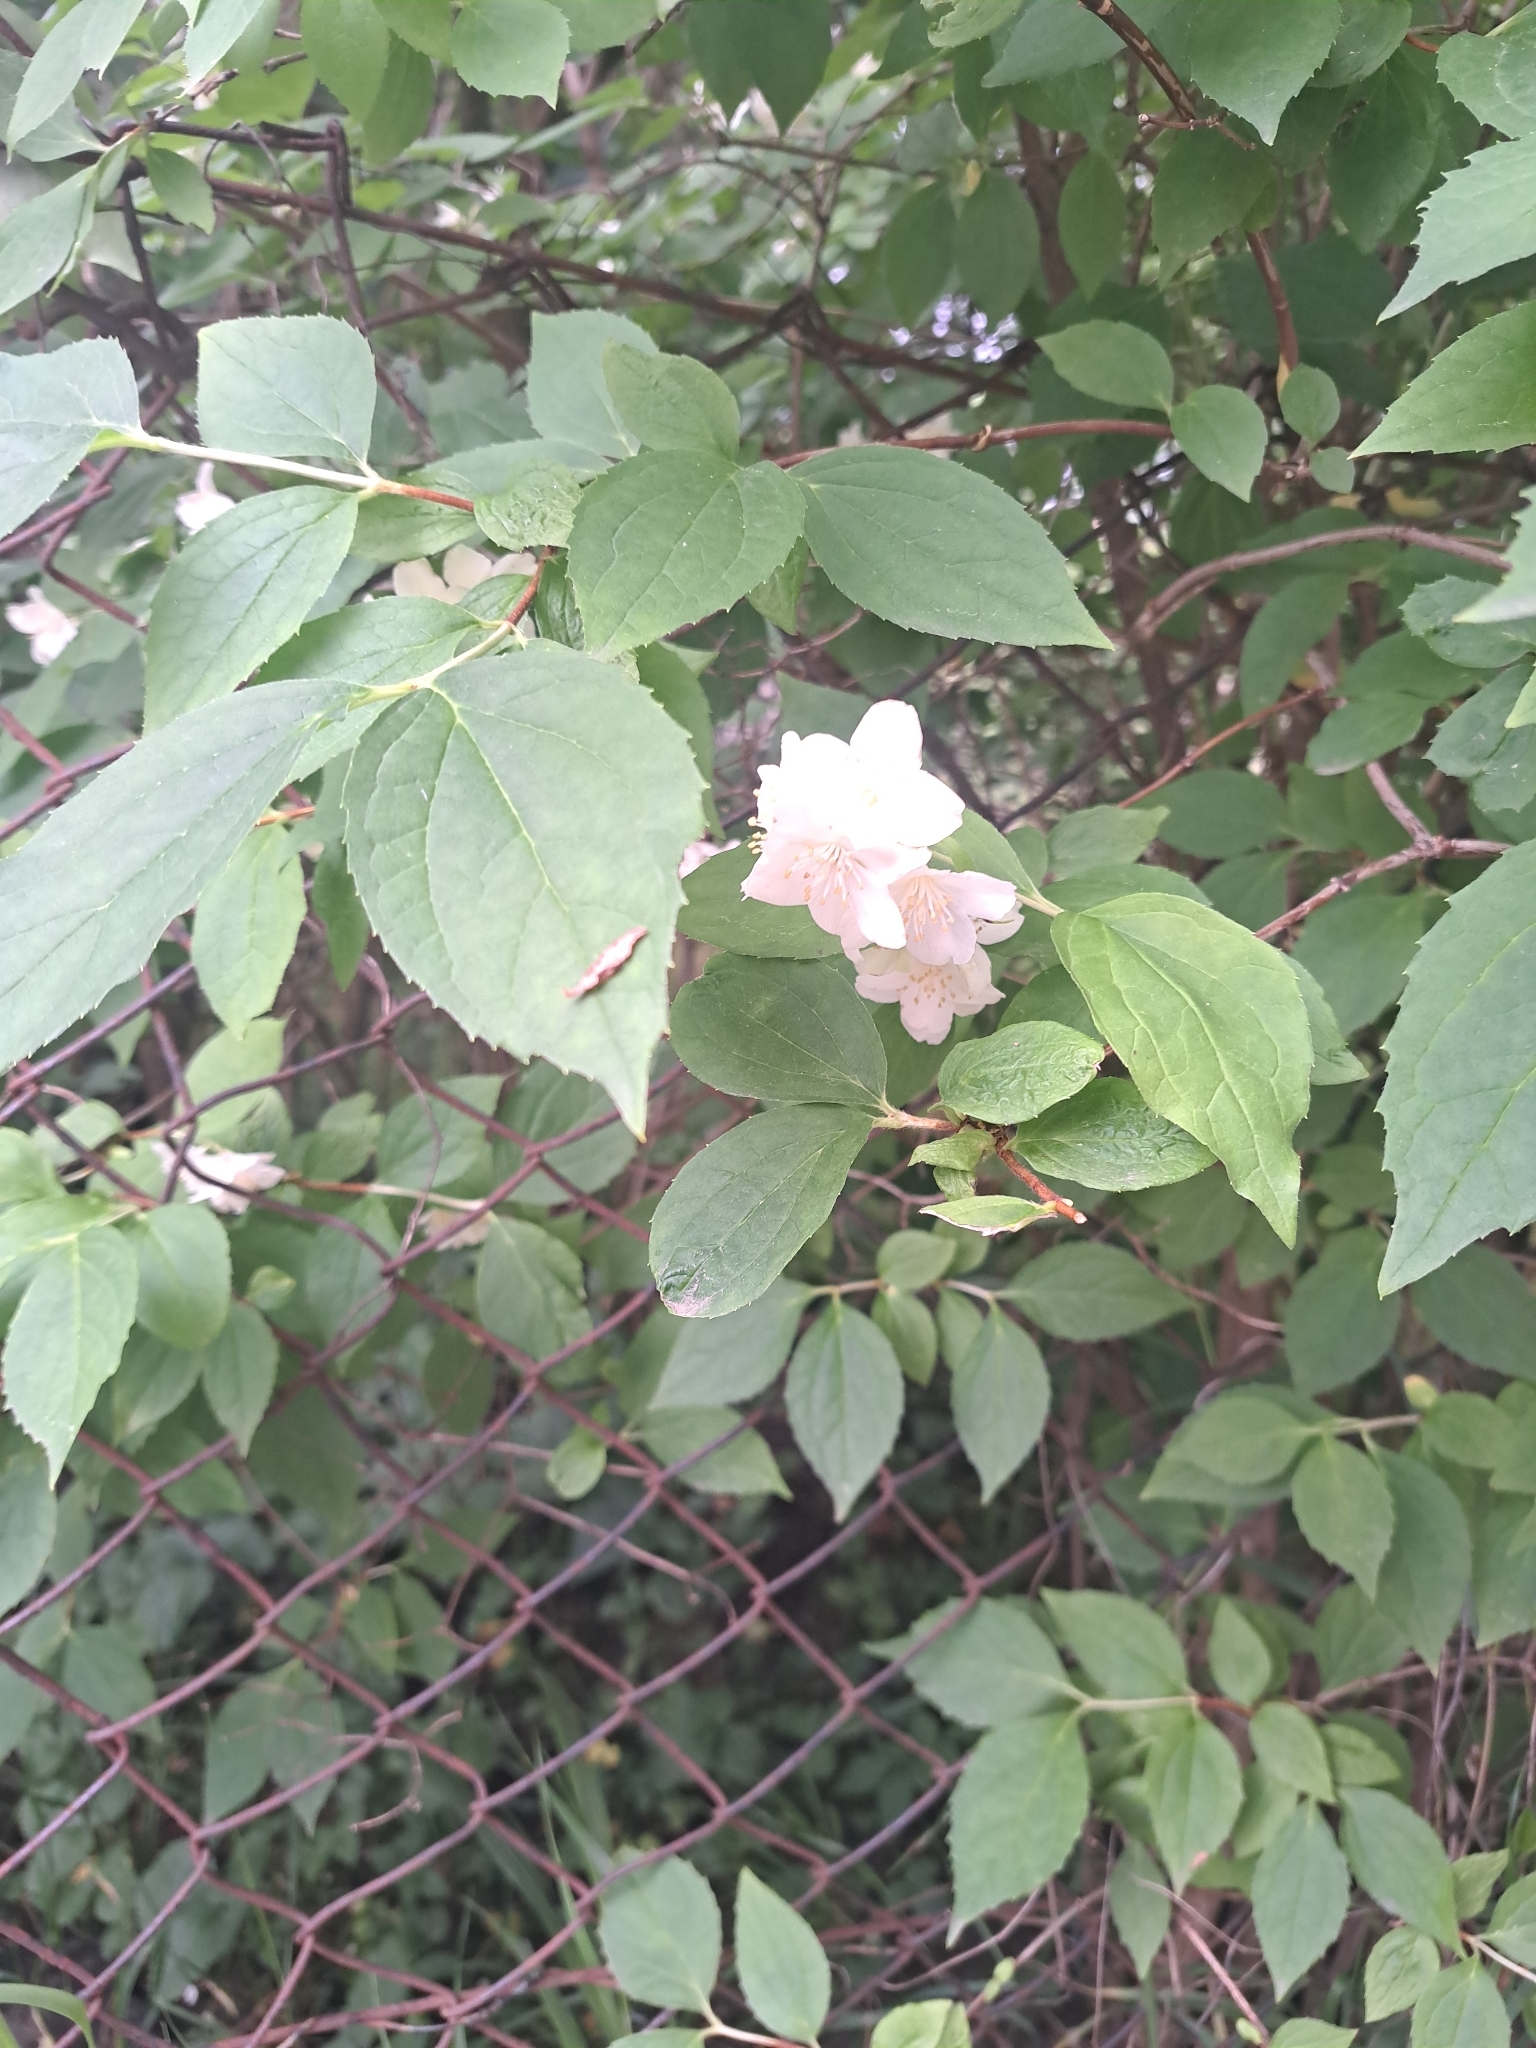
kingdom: Plantae
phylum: Tracheophyta
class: Magnoliopsida
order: Cornales
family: Hydrangeaceae
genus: Philadelphus
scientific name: Philadelphus coronarius
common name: Mock orange
